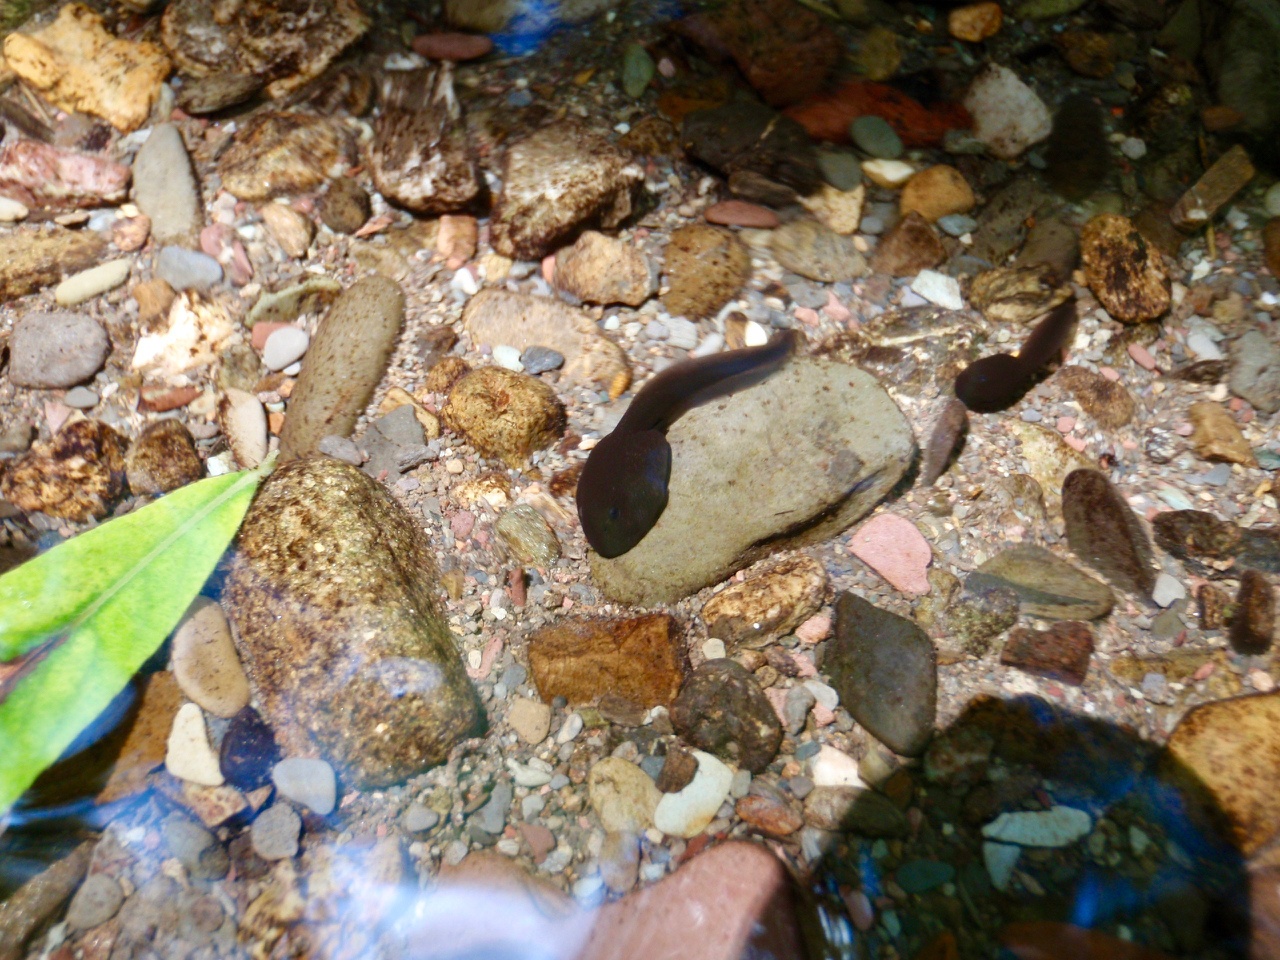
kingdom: Animalia
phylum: Chordata
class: Amphibia
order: Anura
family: Bufonidae
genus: Bufo
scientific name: Bufo bufo
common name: Common toad
